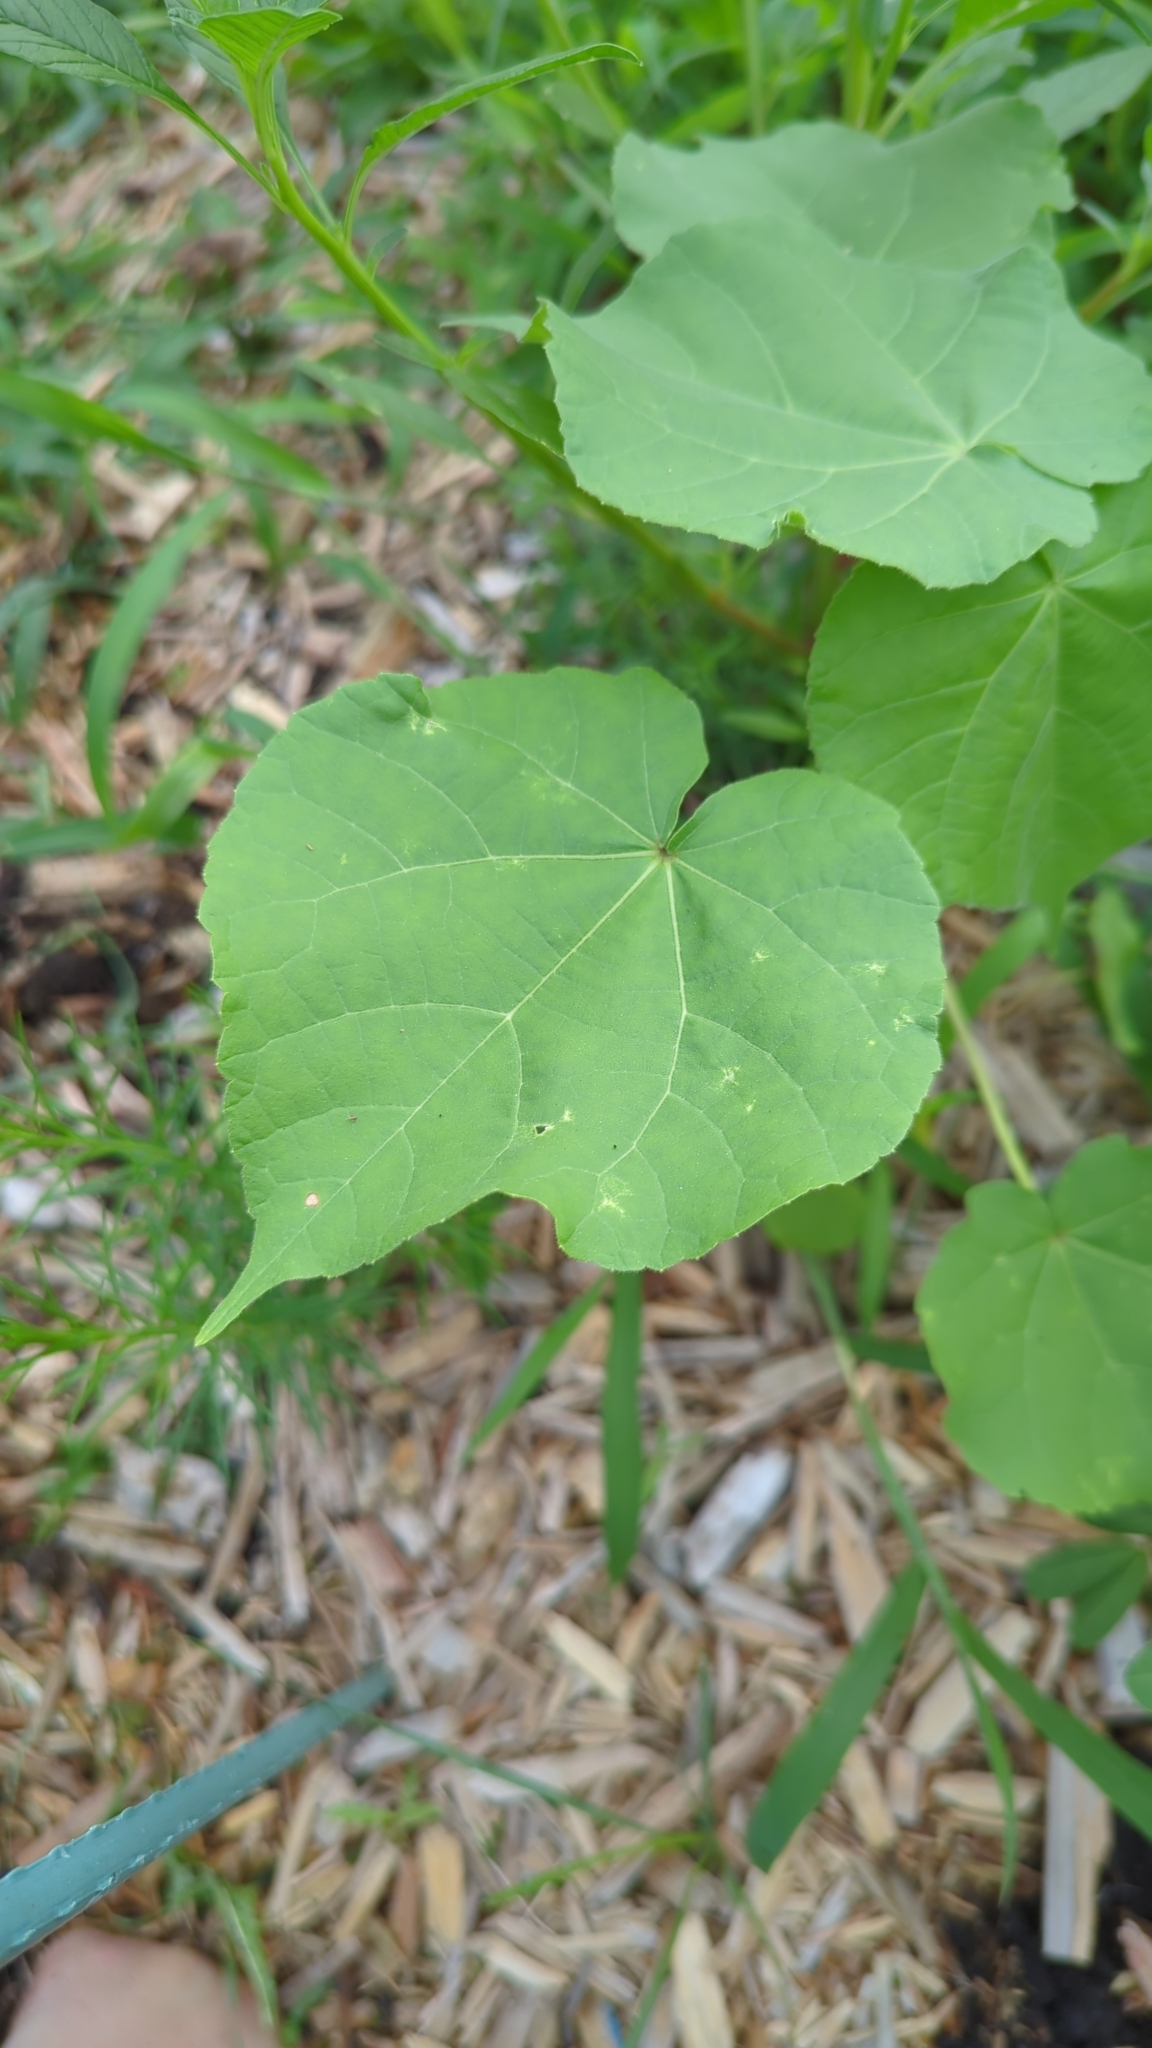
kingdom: Plantae
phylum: Tracheophyta
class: Magnoliopsida
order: Malvales
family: Malvaceae
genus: Abutilon
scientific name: Abutilon theophrasti
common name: Velvetleaf
